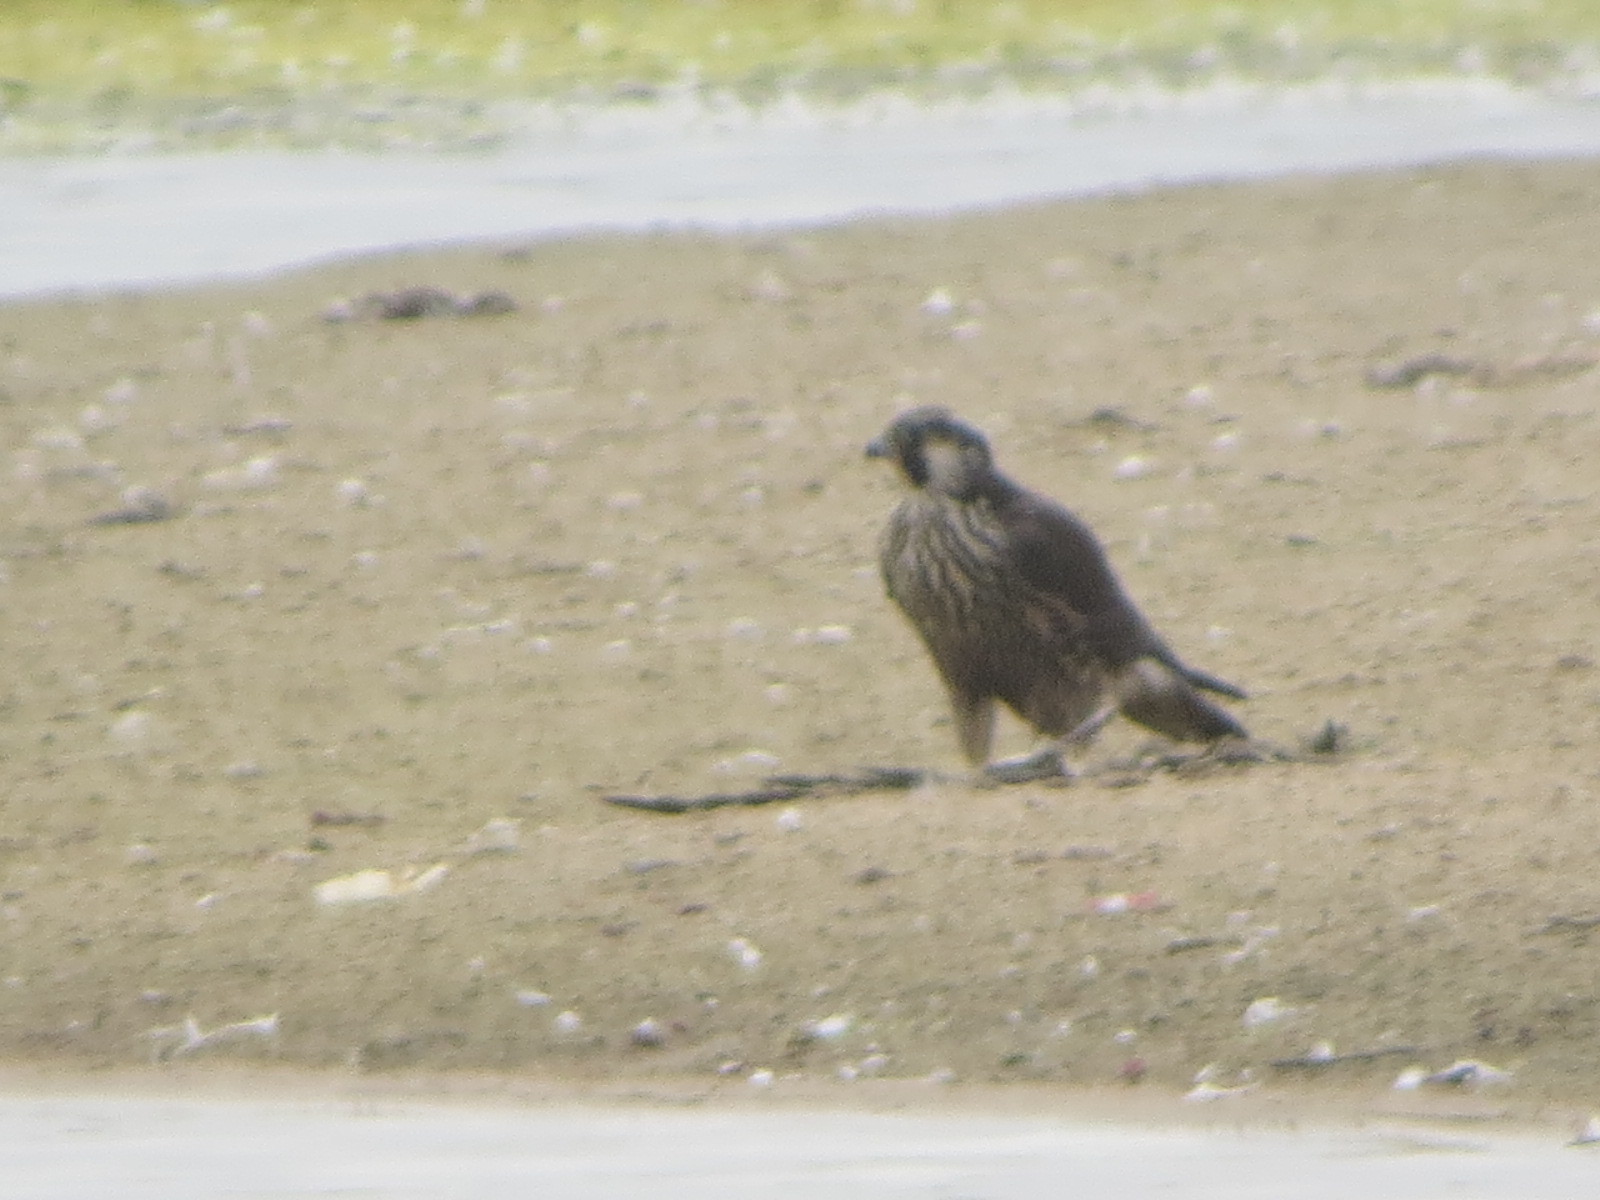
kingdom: Animalia
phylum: Chordata
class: Aves
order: Falconiformes
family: Falconidae
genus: Falco
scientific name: Falco peregrinus
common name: Peregrine falcon
